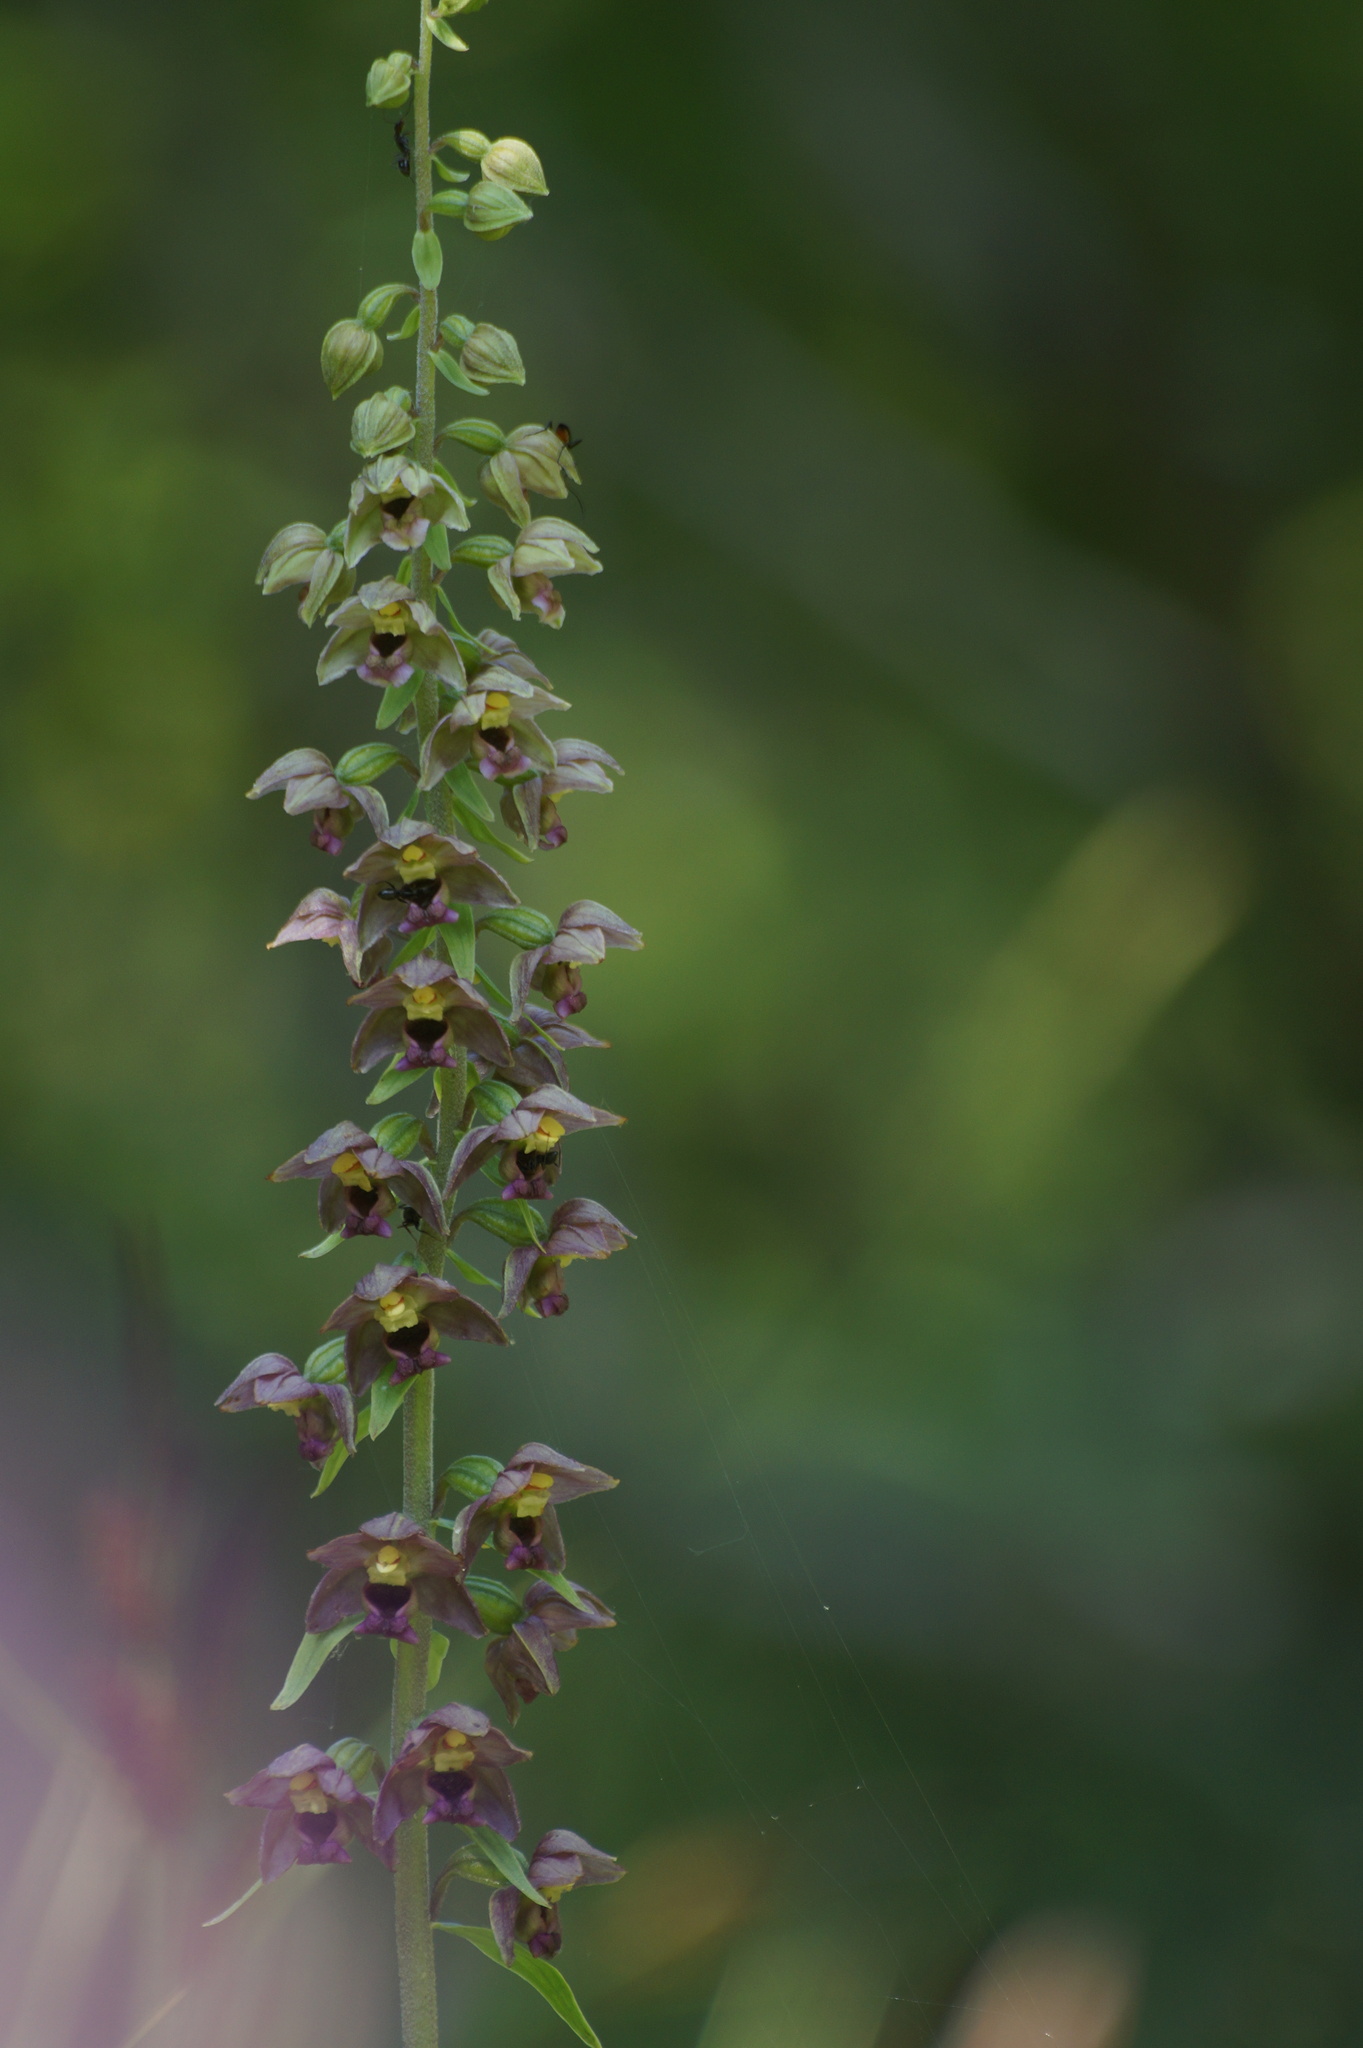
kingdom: Plantae
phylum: Tracheophyta
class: Liliopsida
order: Asparagales
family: Orchidaceae
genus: Epipactis
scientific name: Epipactis helleborine
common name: Broad-leaved helleborine
